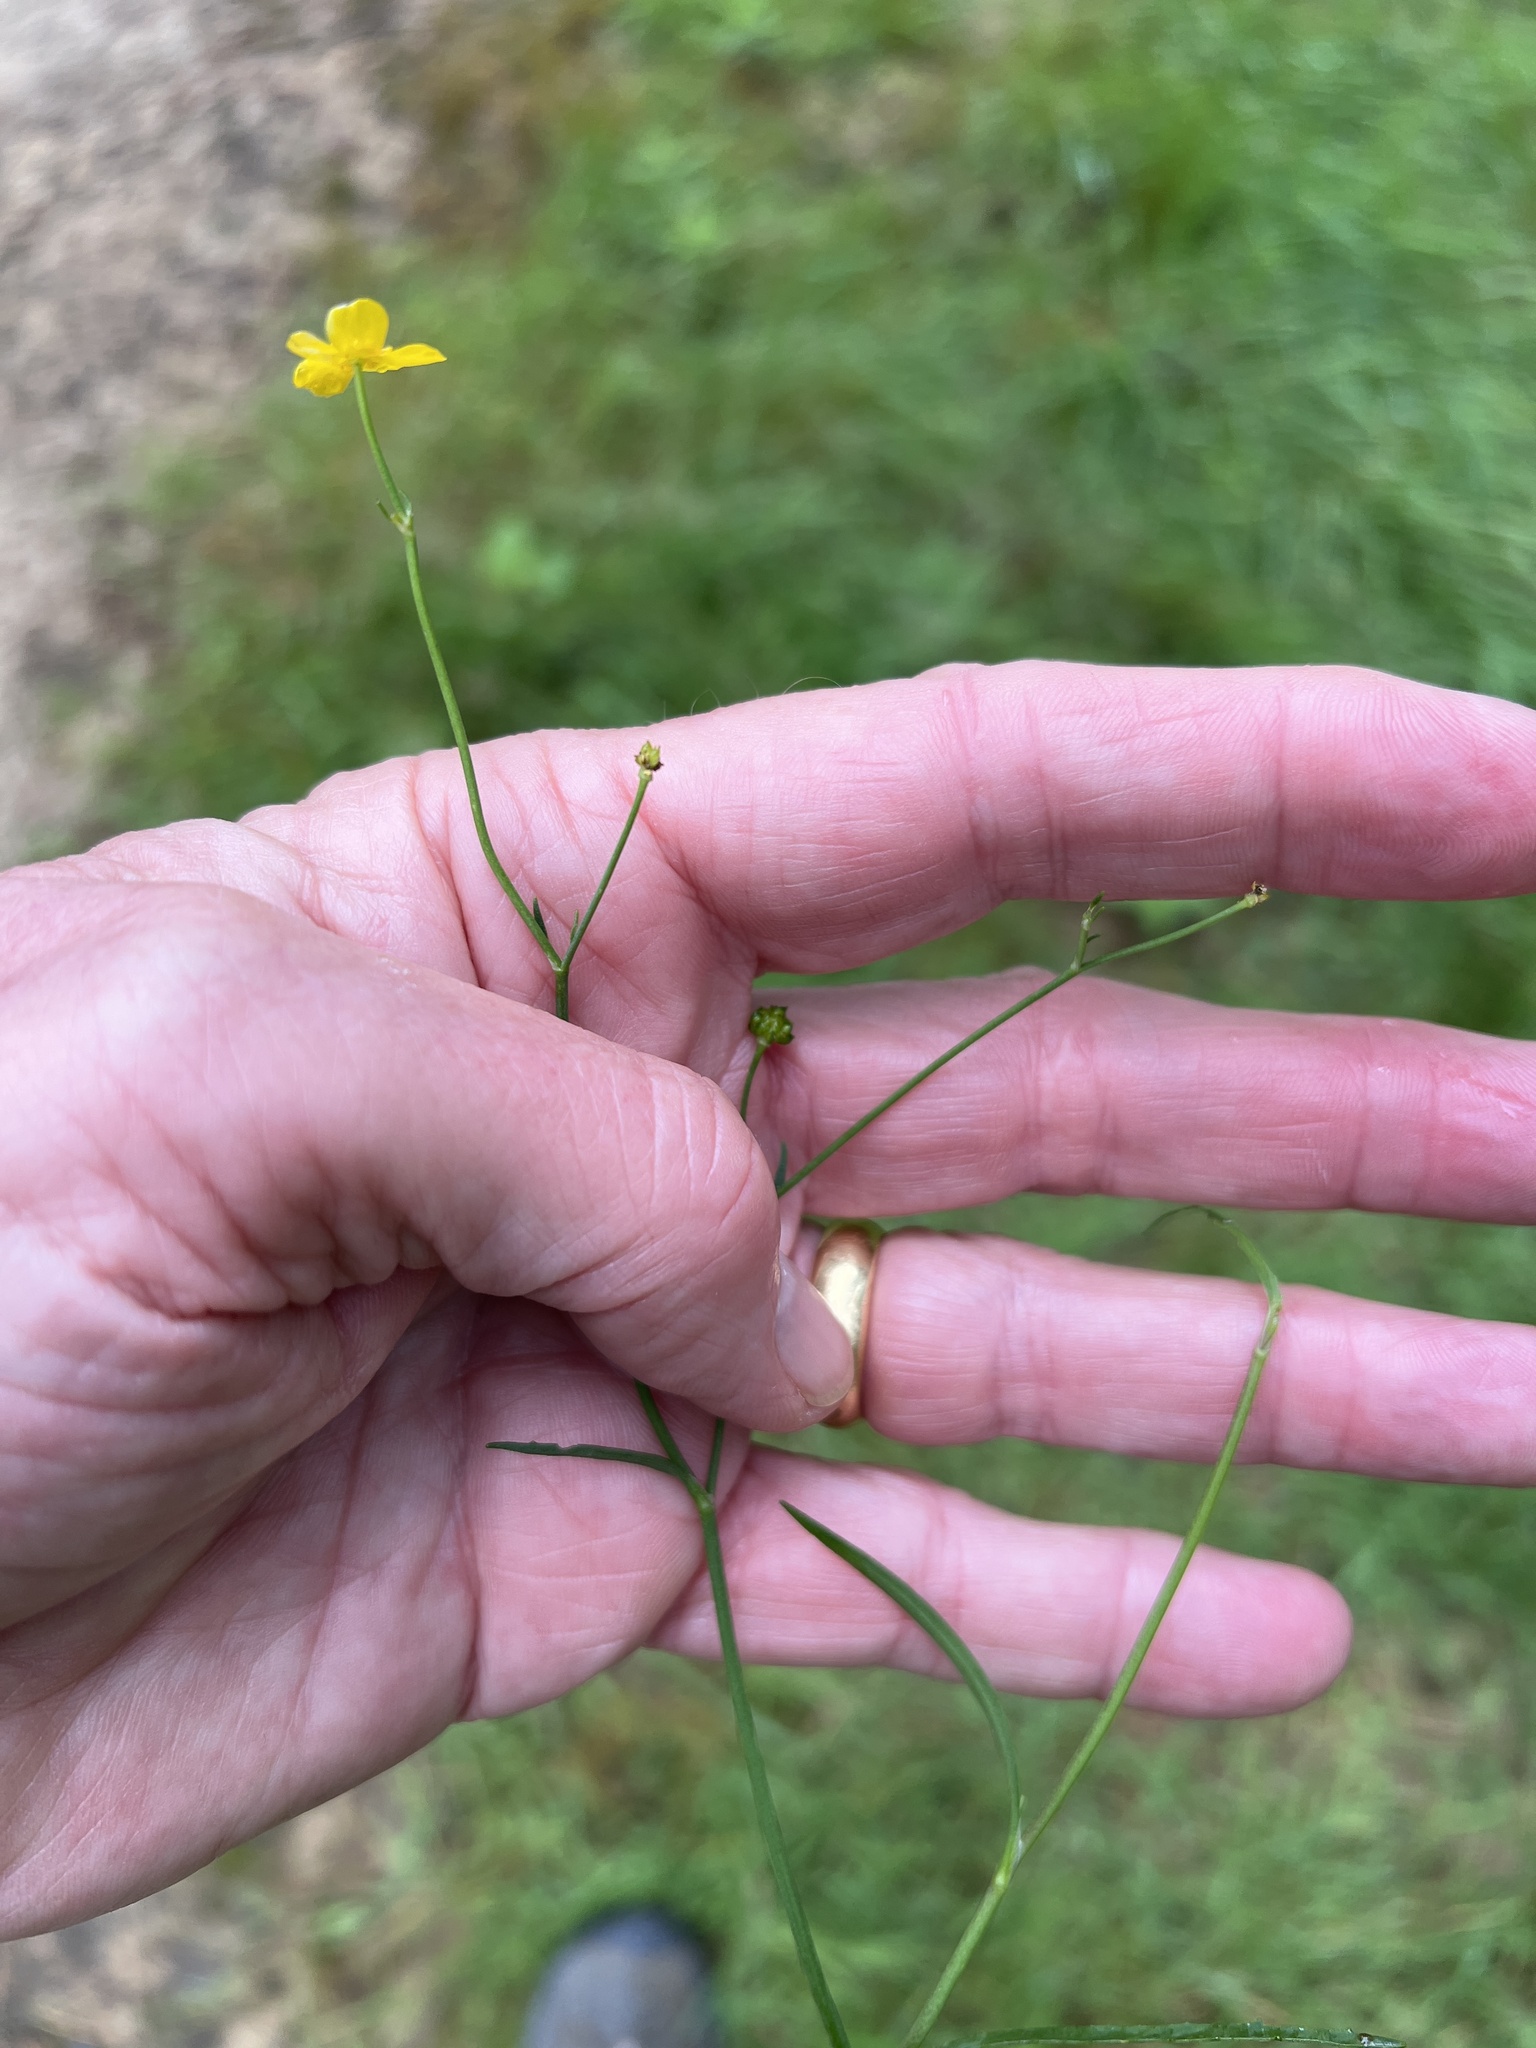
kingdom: Plantae
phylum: Tracheophyta
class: Magnoliopsida
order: Ranunculales
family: Ranunculaceae
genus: Ranunculus
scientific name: Ranunculus flammula
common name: Lesser spearwort
